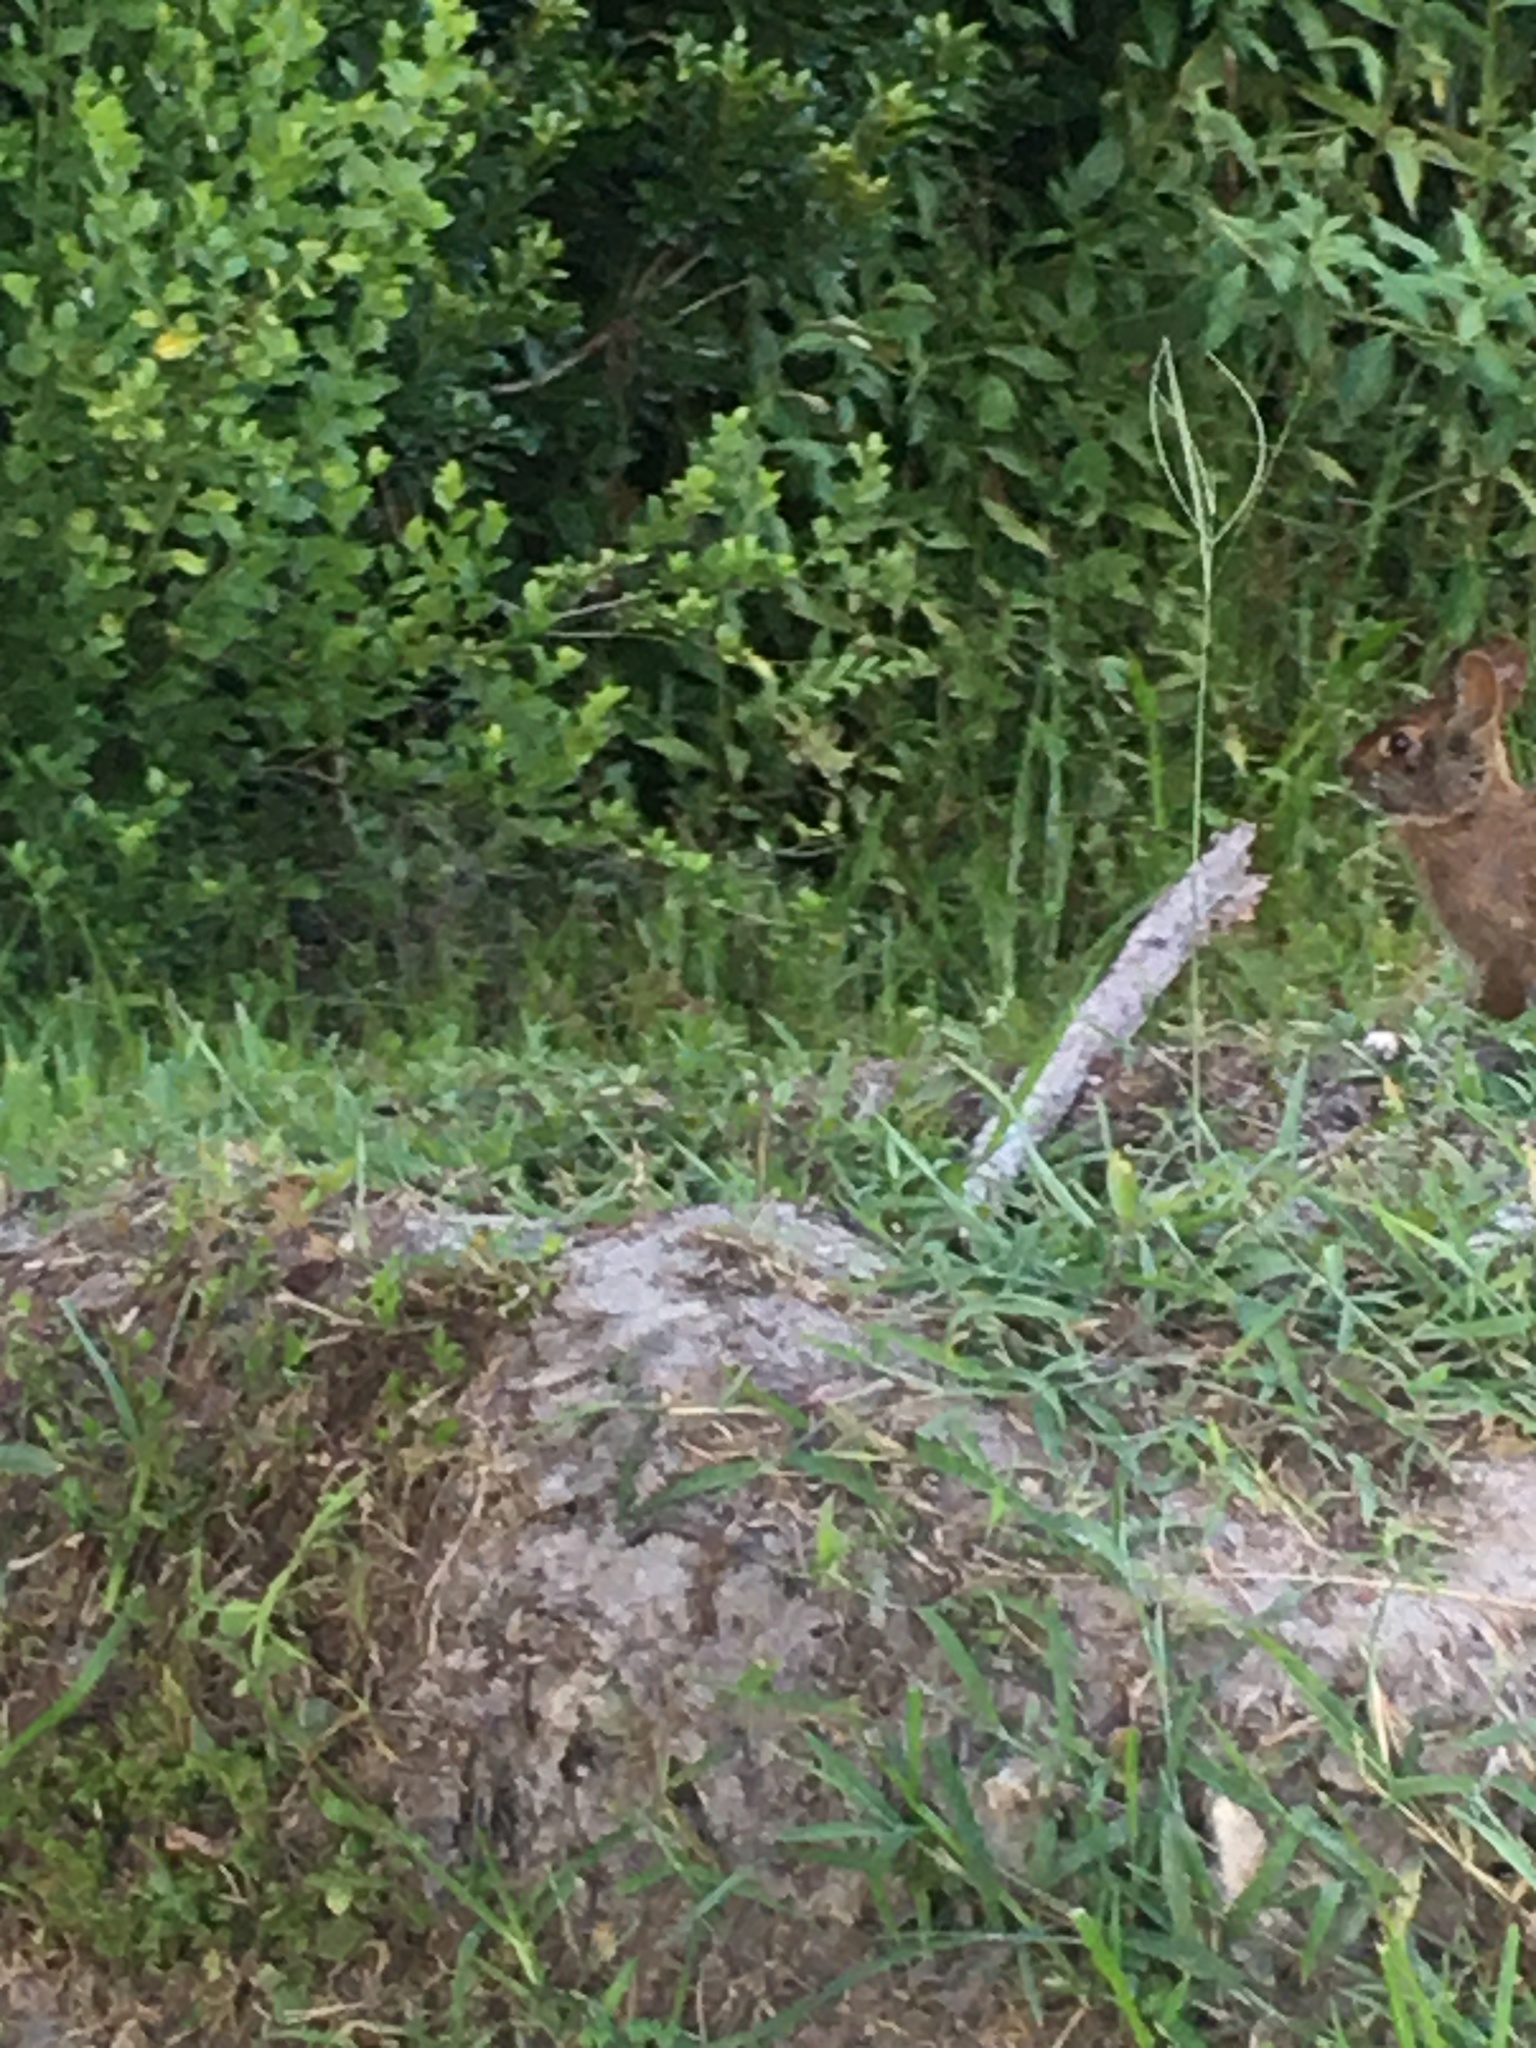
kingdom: Animalia
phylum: Chordata
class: Mammalia
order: Lagomorpha
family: Leporidae
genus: Sylvilagus
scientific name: Sylvilagus palustris
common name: Marsh rabbit
